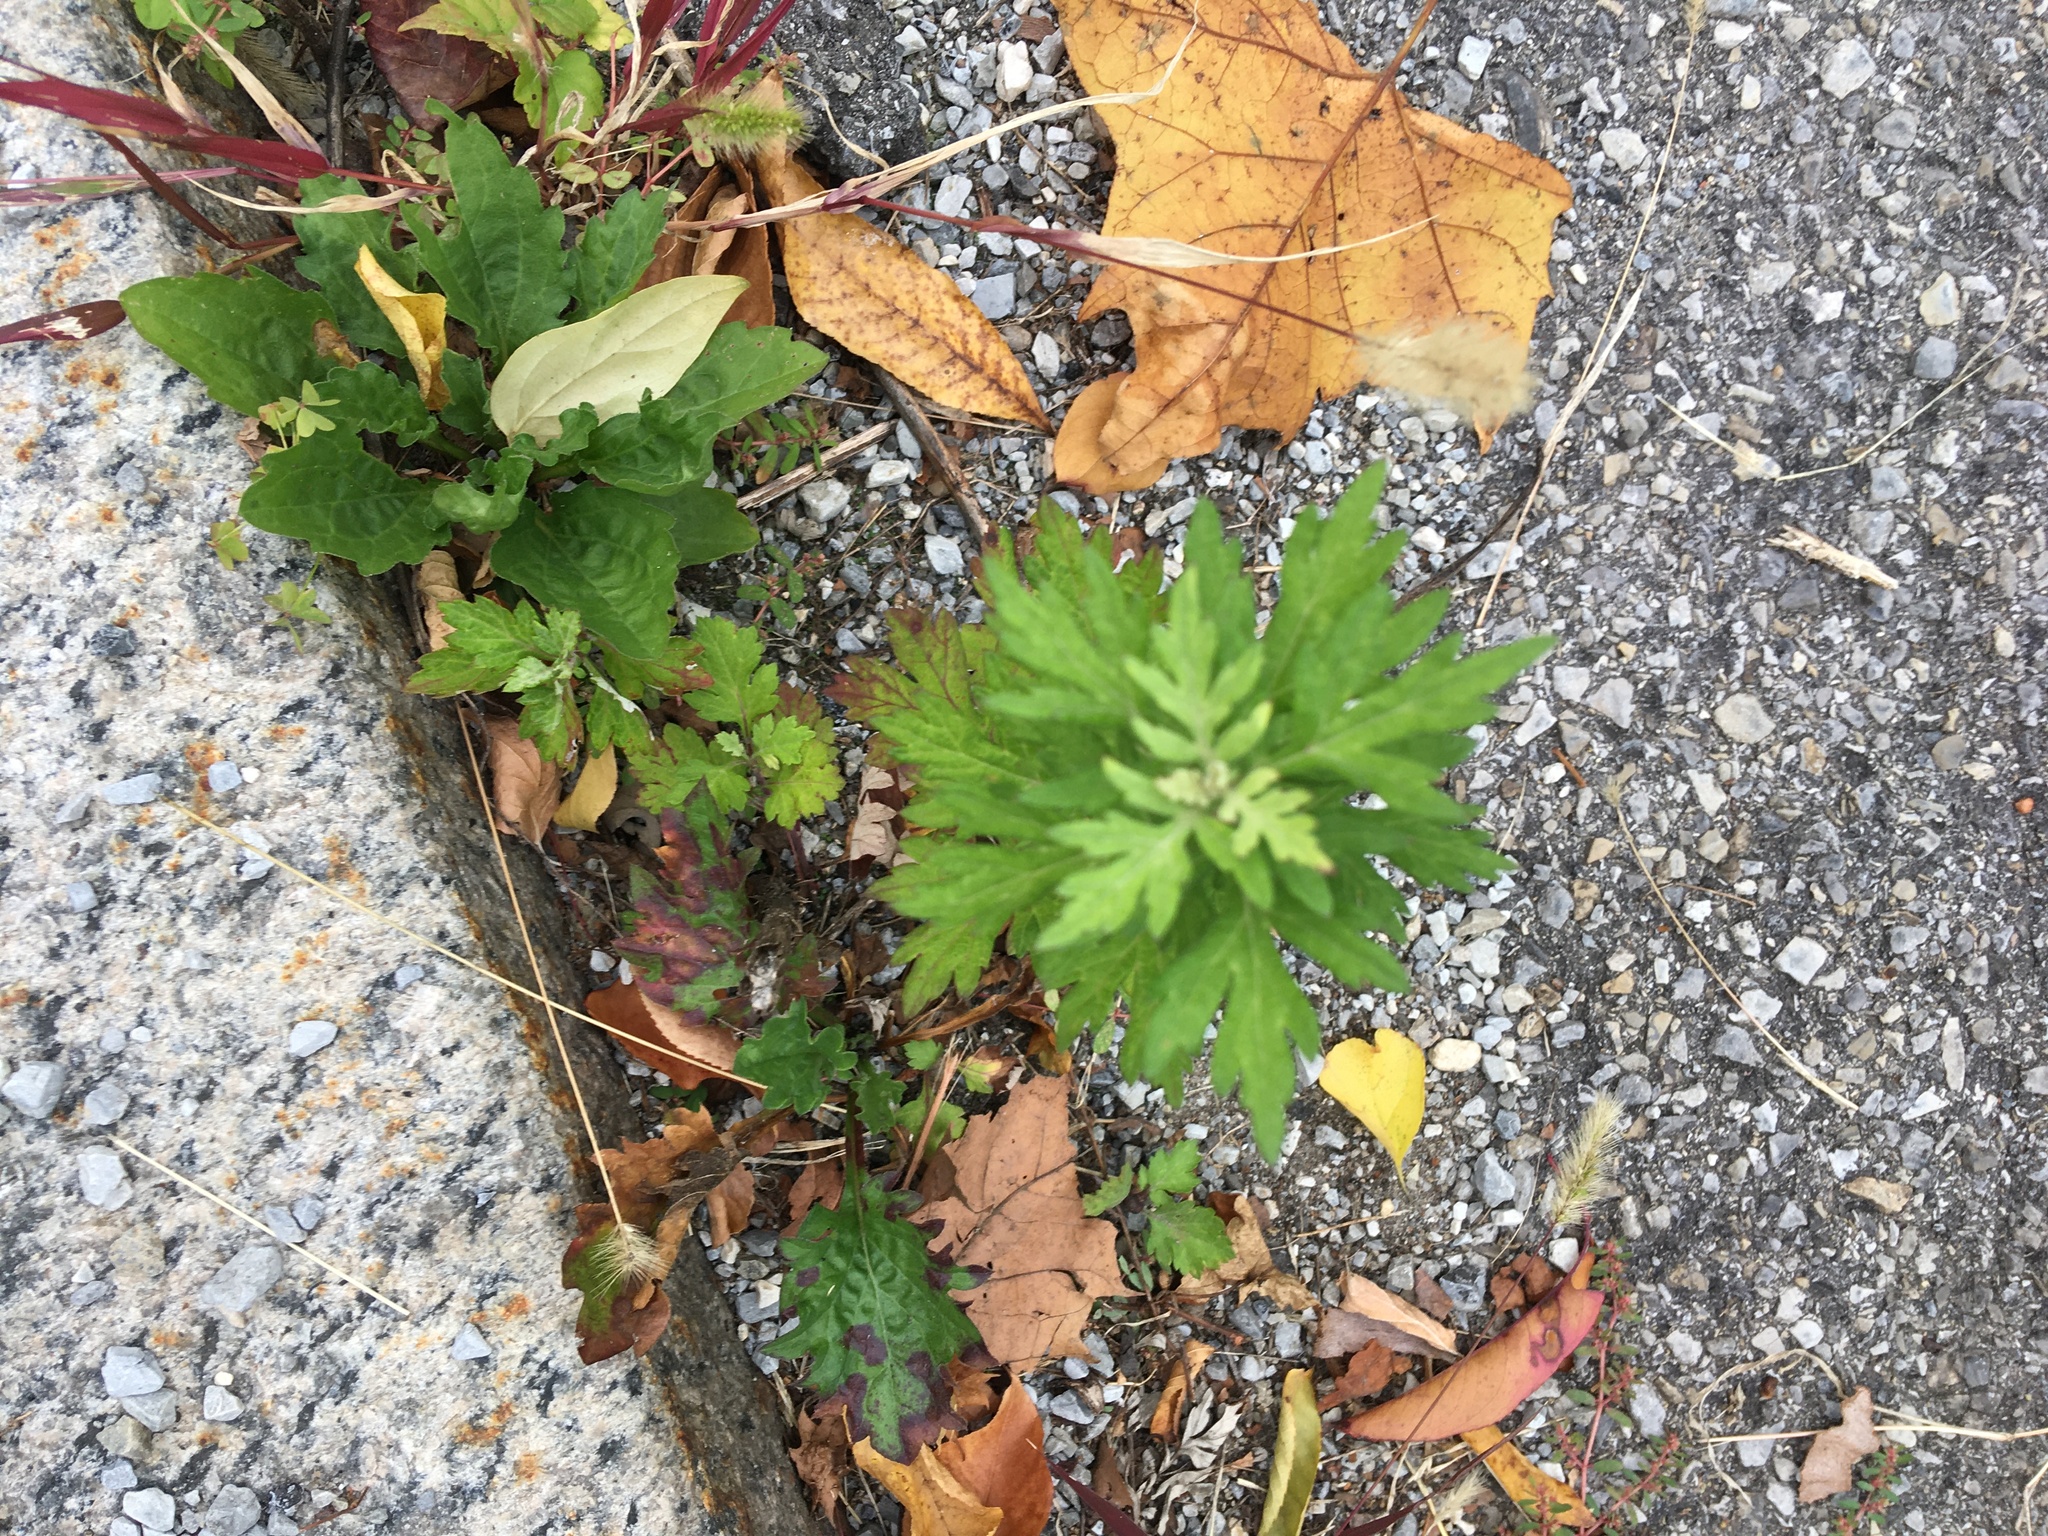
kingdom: Plantae
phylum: Tracheophyta
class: Magnoliopsida
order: Asterales
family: Asteraceae
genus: Artemisia
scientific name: Artemisia vulgaris
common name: Mugwort
